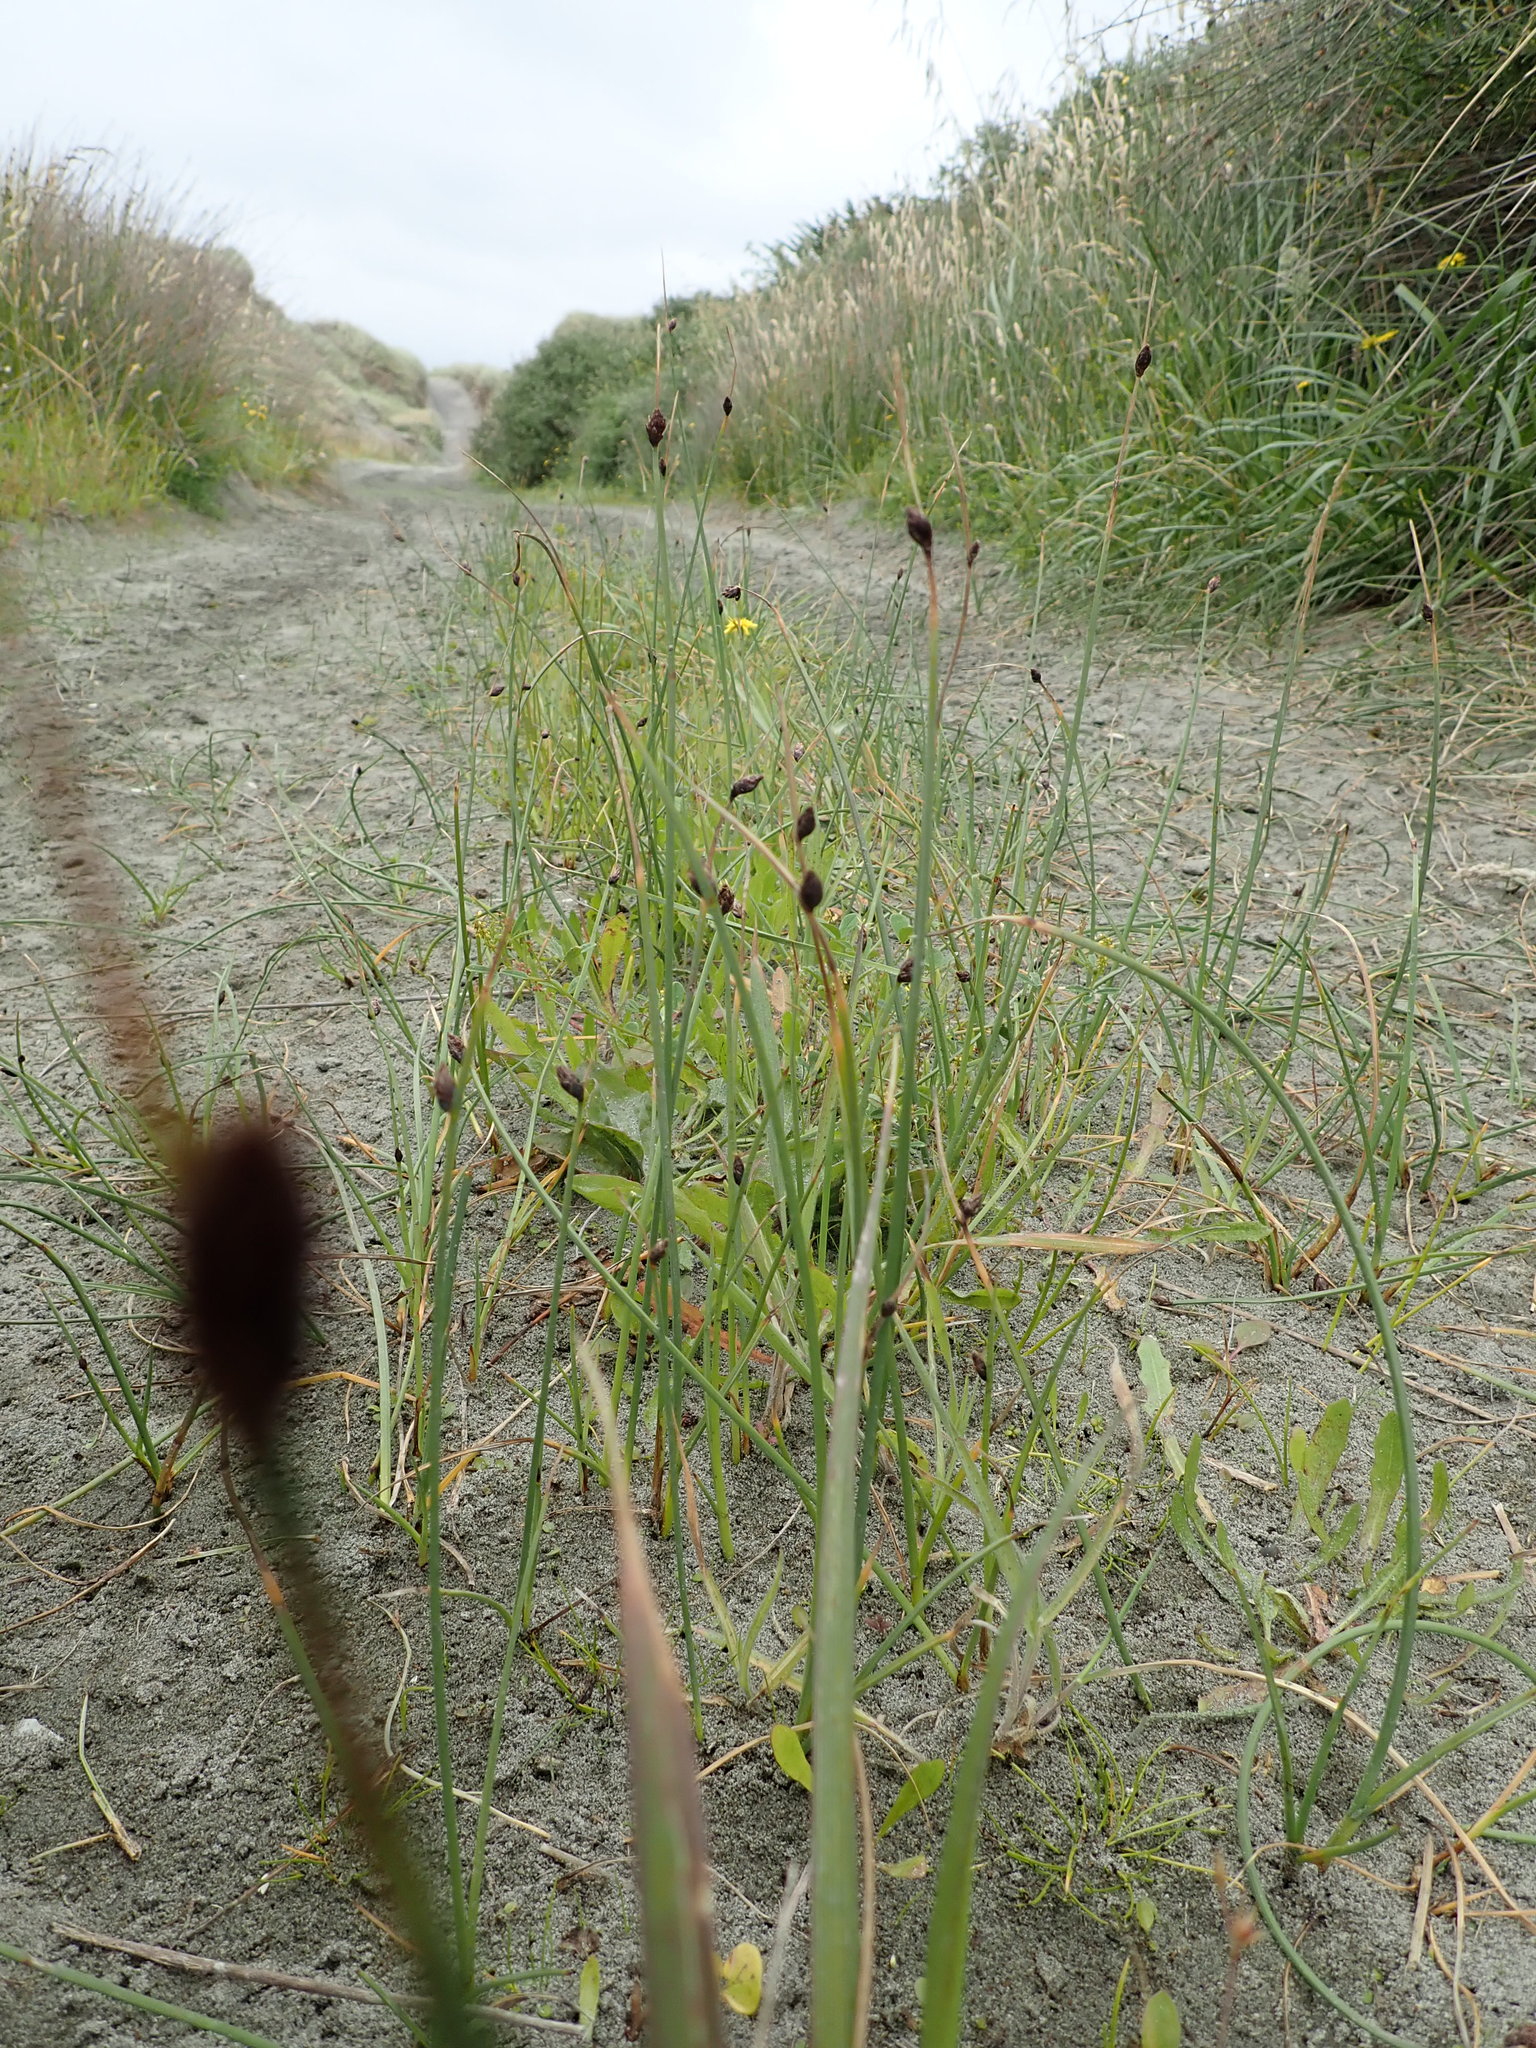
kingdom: Plantae
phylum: Tracheophyta
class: Liliopsida
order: Poales
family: Cyperaceae
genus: Schoenoplectus
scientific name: Schoenoplectus pungens
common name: Sharp club-rush
